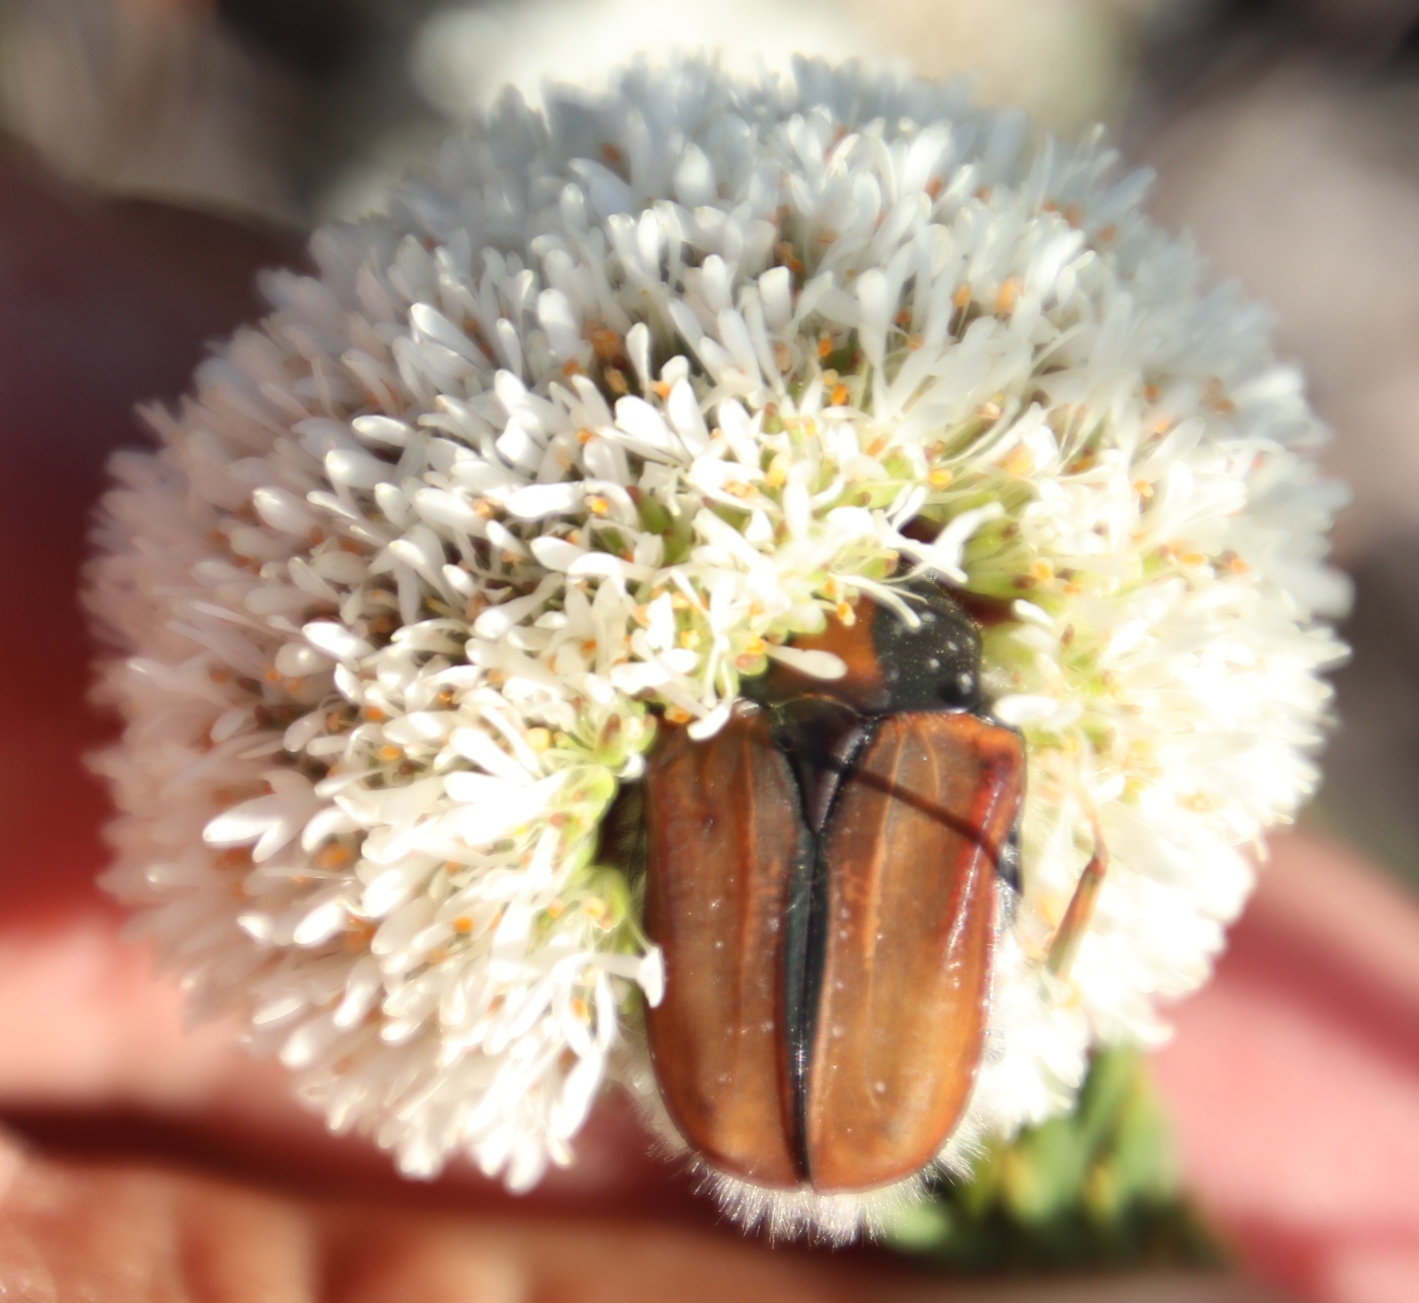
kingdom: Animalia
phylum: Arthropoda
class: Insecta
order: Coleoptera
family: Scarabaeidae
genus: Trichostetha
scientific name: Trichostetha signata
